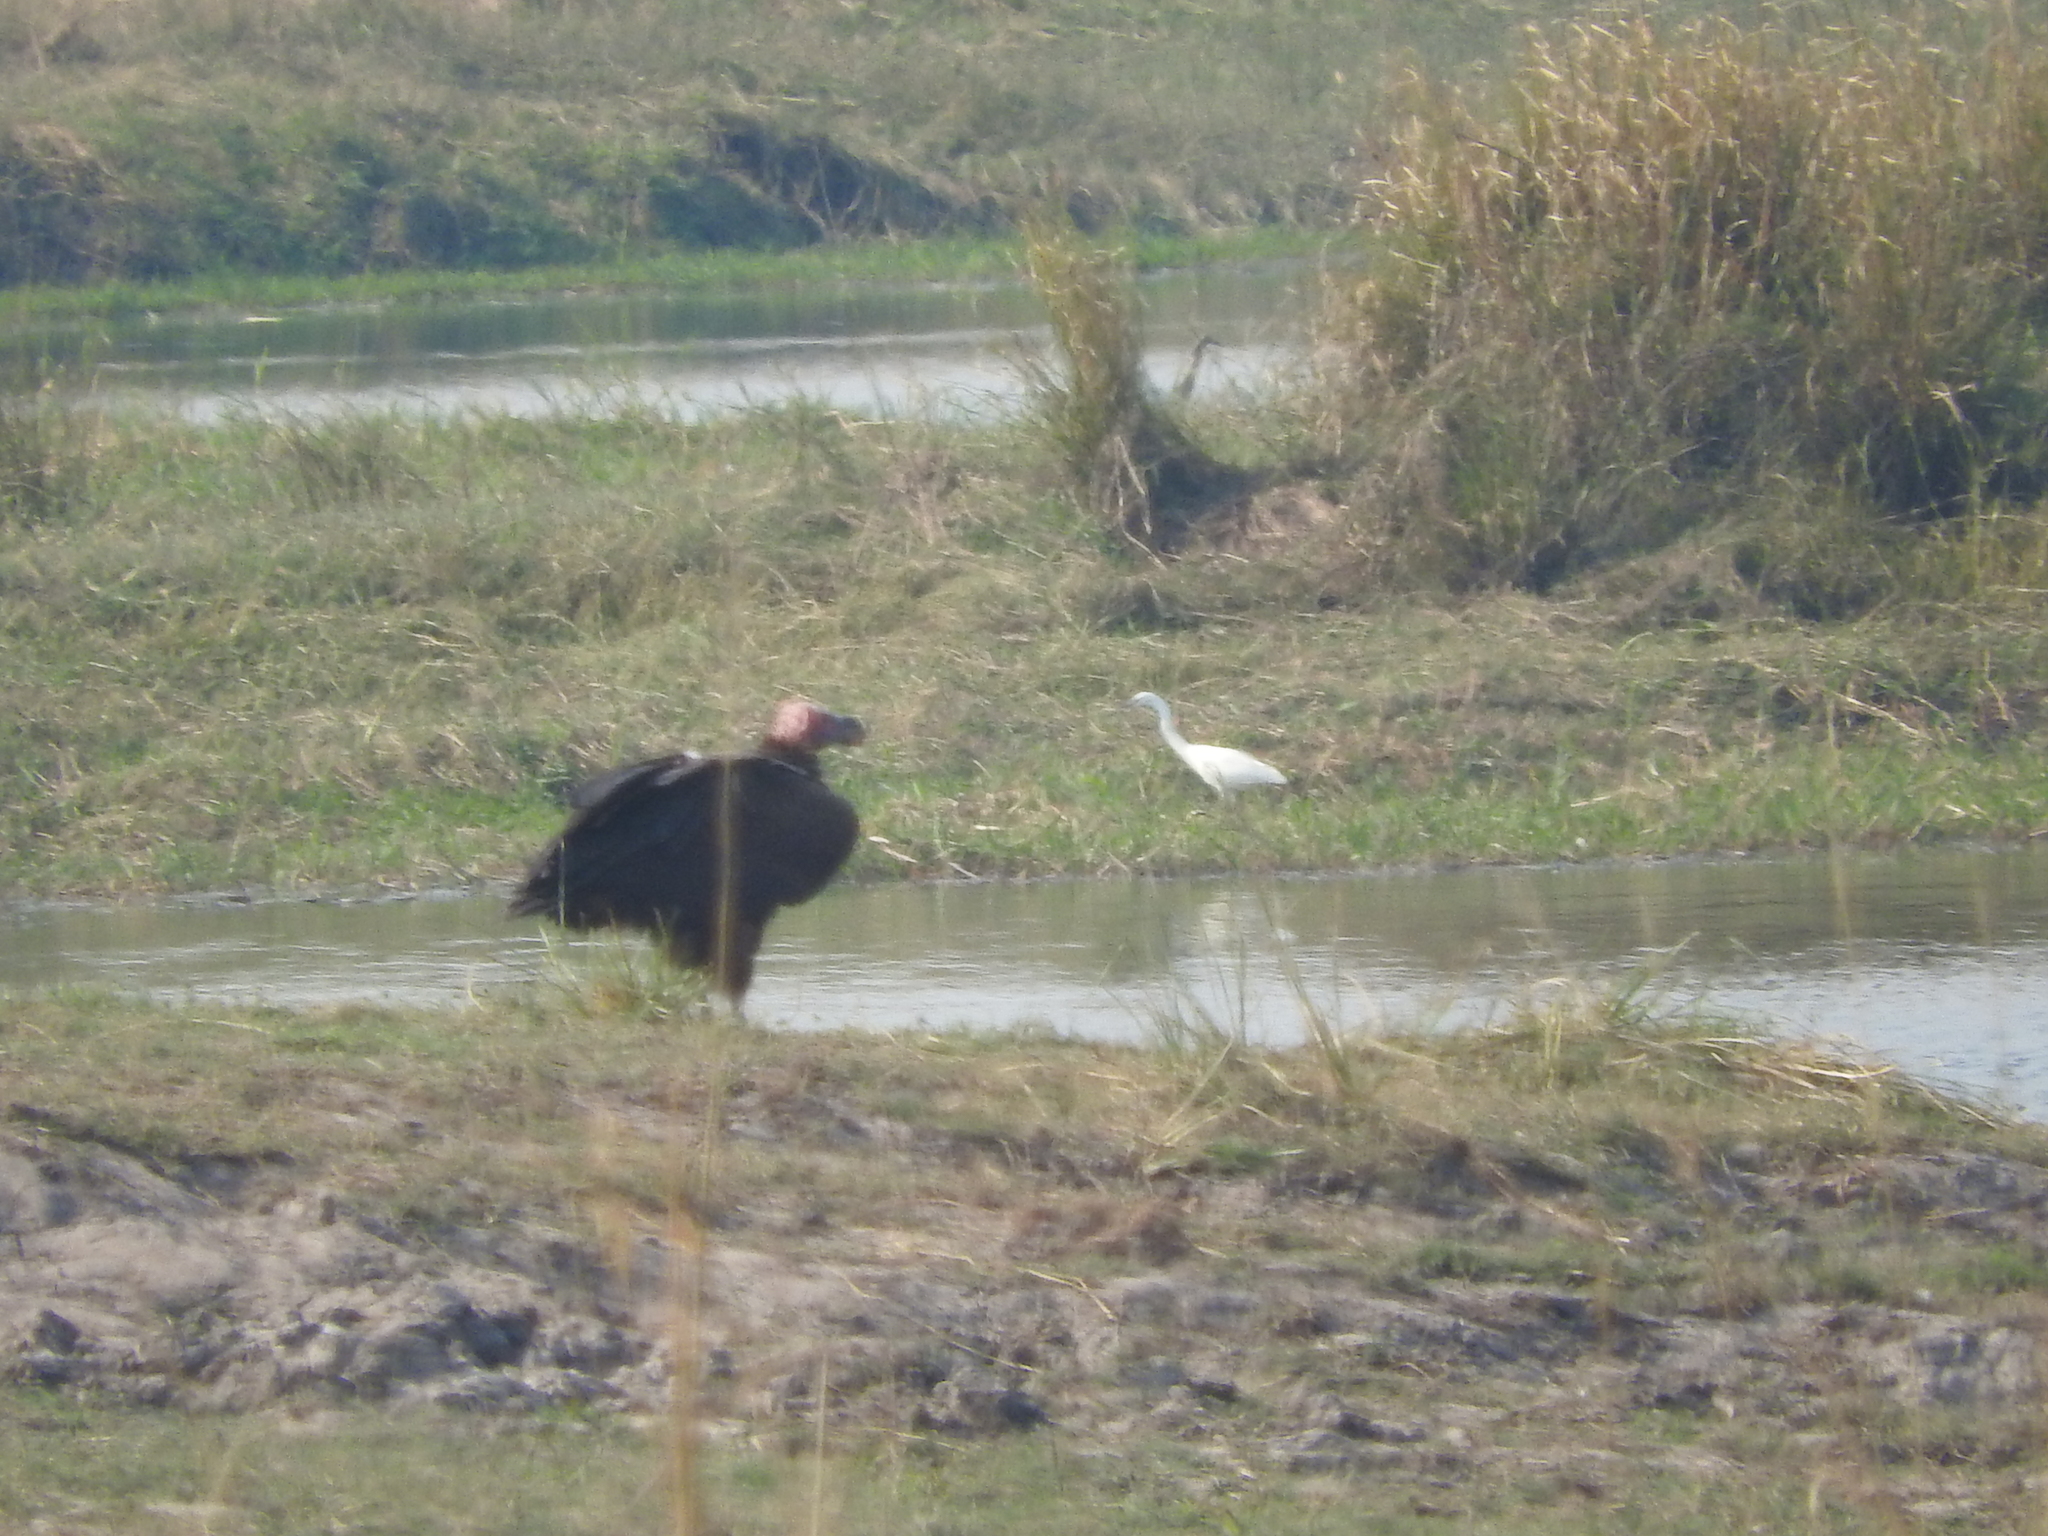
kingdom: Animalia
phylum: Chordata
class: Aves
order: Accipitriformes
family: Accipitridae
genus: Torgos
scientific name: Torgos tracheliotos
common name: Lappet-faced vulture
